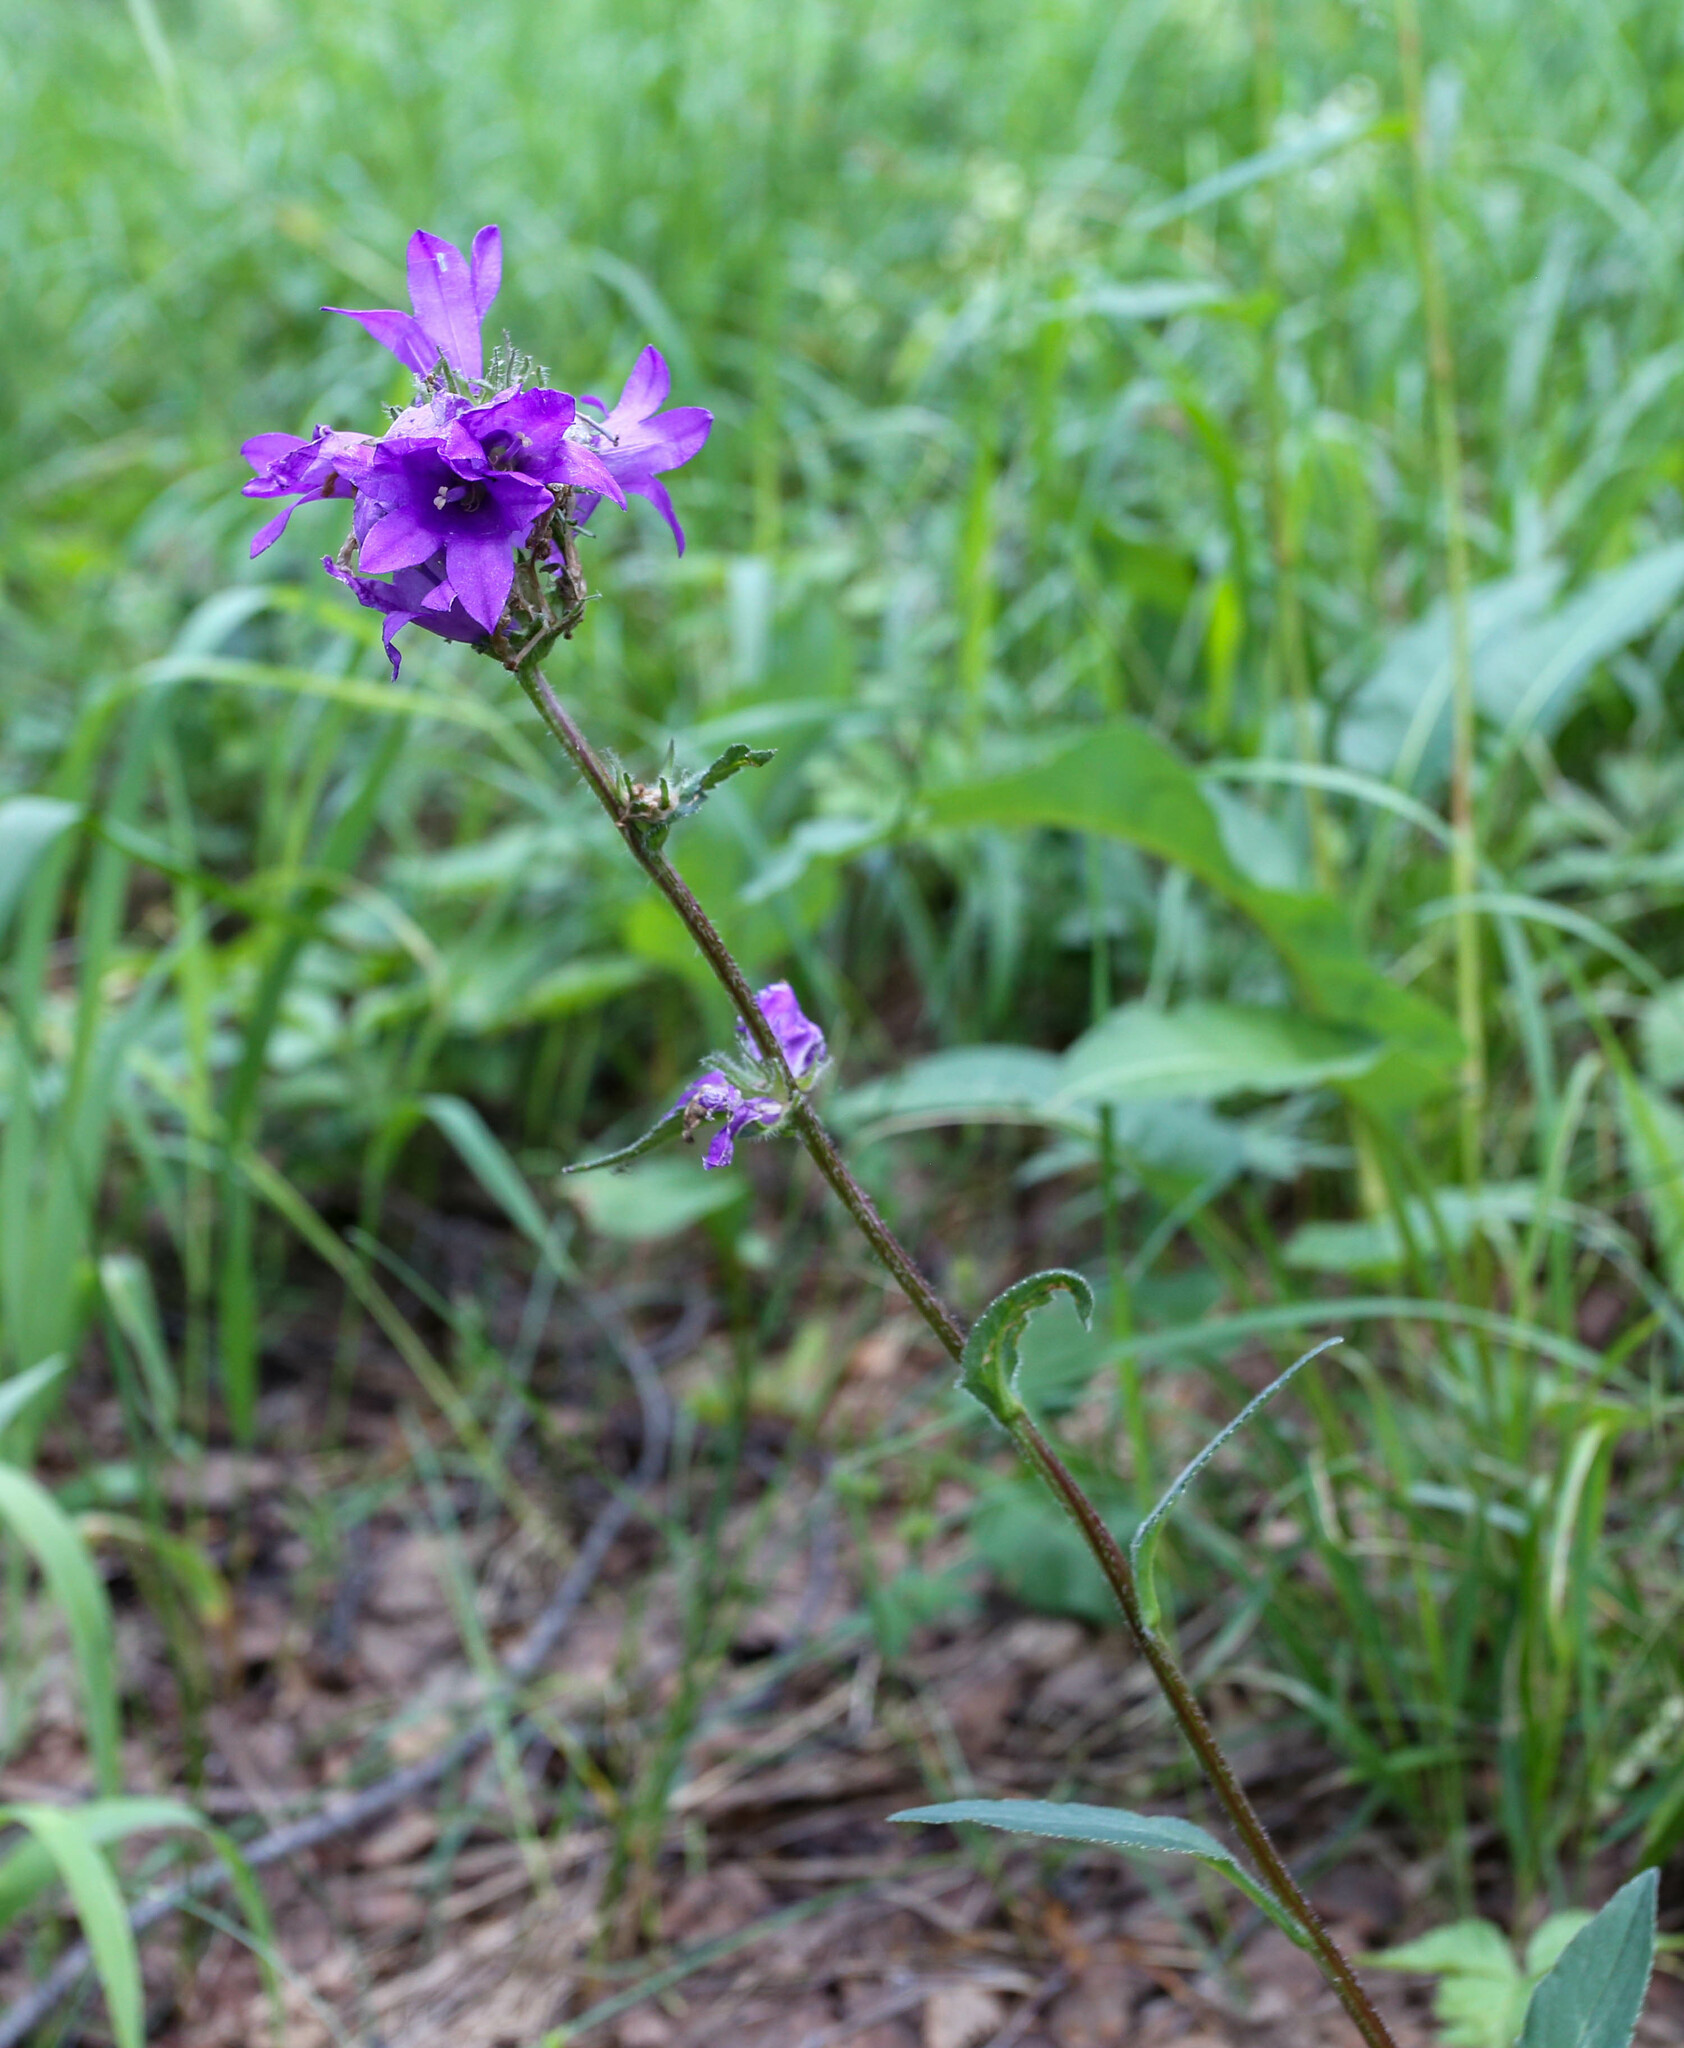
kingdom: Plantae
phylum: Tracheophyta
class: Magnoliopsida
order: Asterales
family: Campanulaceae
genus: Campanula
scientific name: Campanula glomerata
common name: Clustered bellflower
